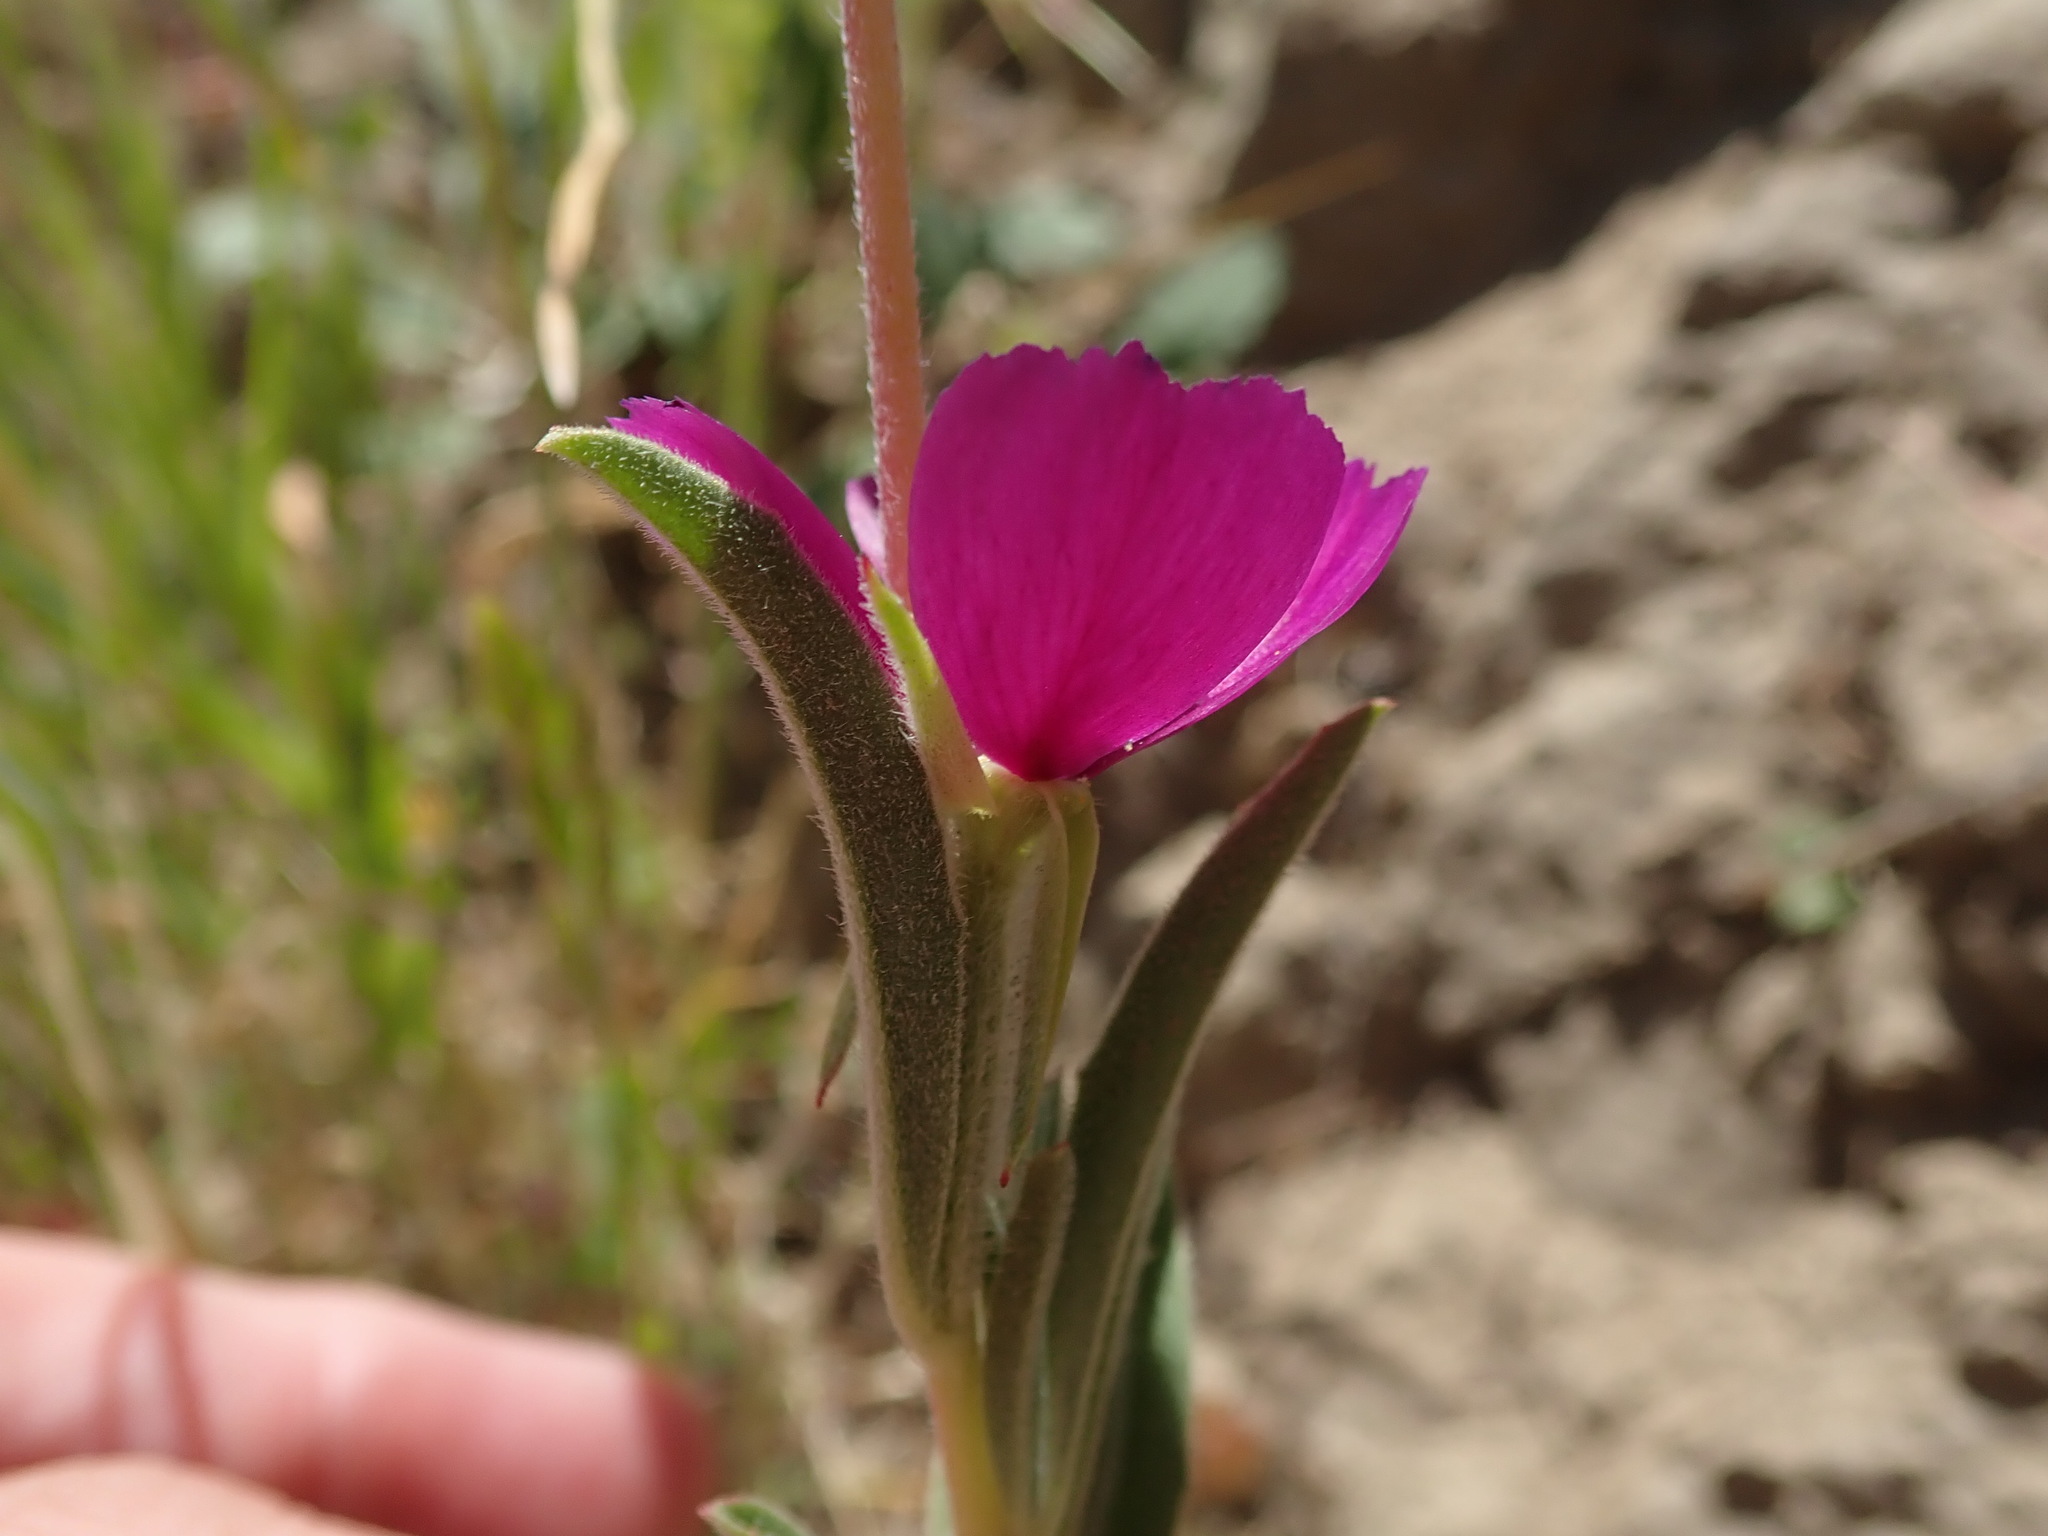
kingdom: Plantae
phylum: Tracheophyta
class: Magnoliopsida
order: Myrtales
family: Onagraceae
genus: Clarkia
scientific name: Clarkia purpurea
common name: Purple clarkia
